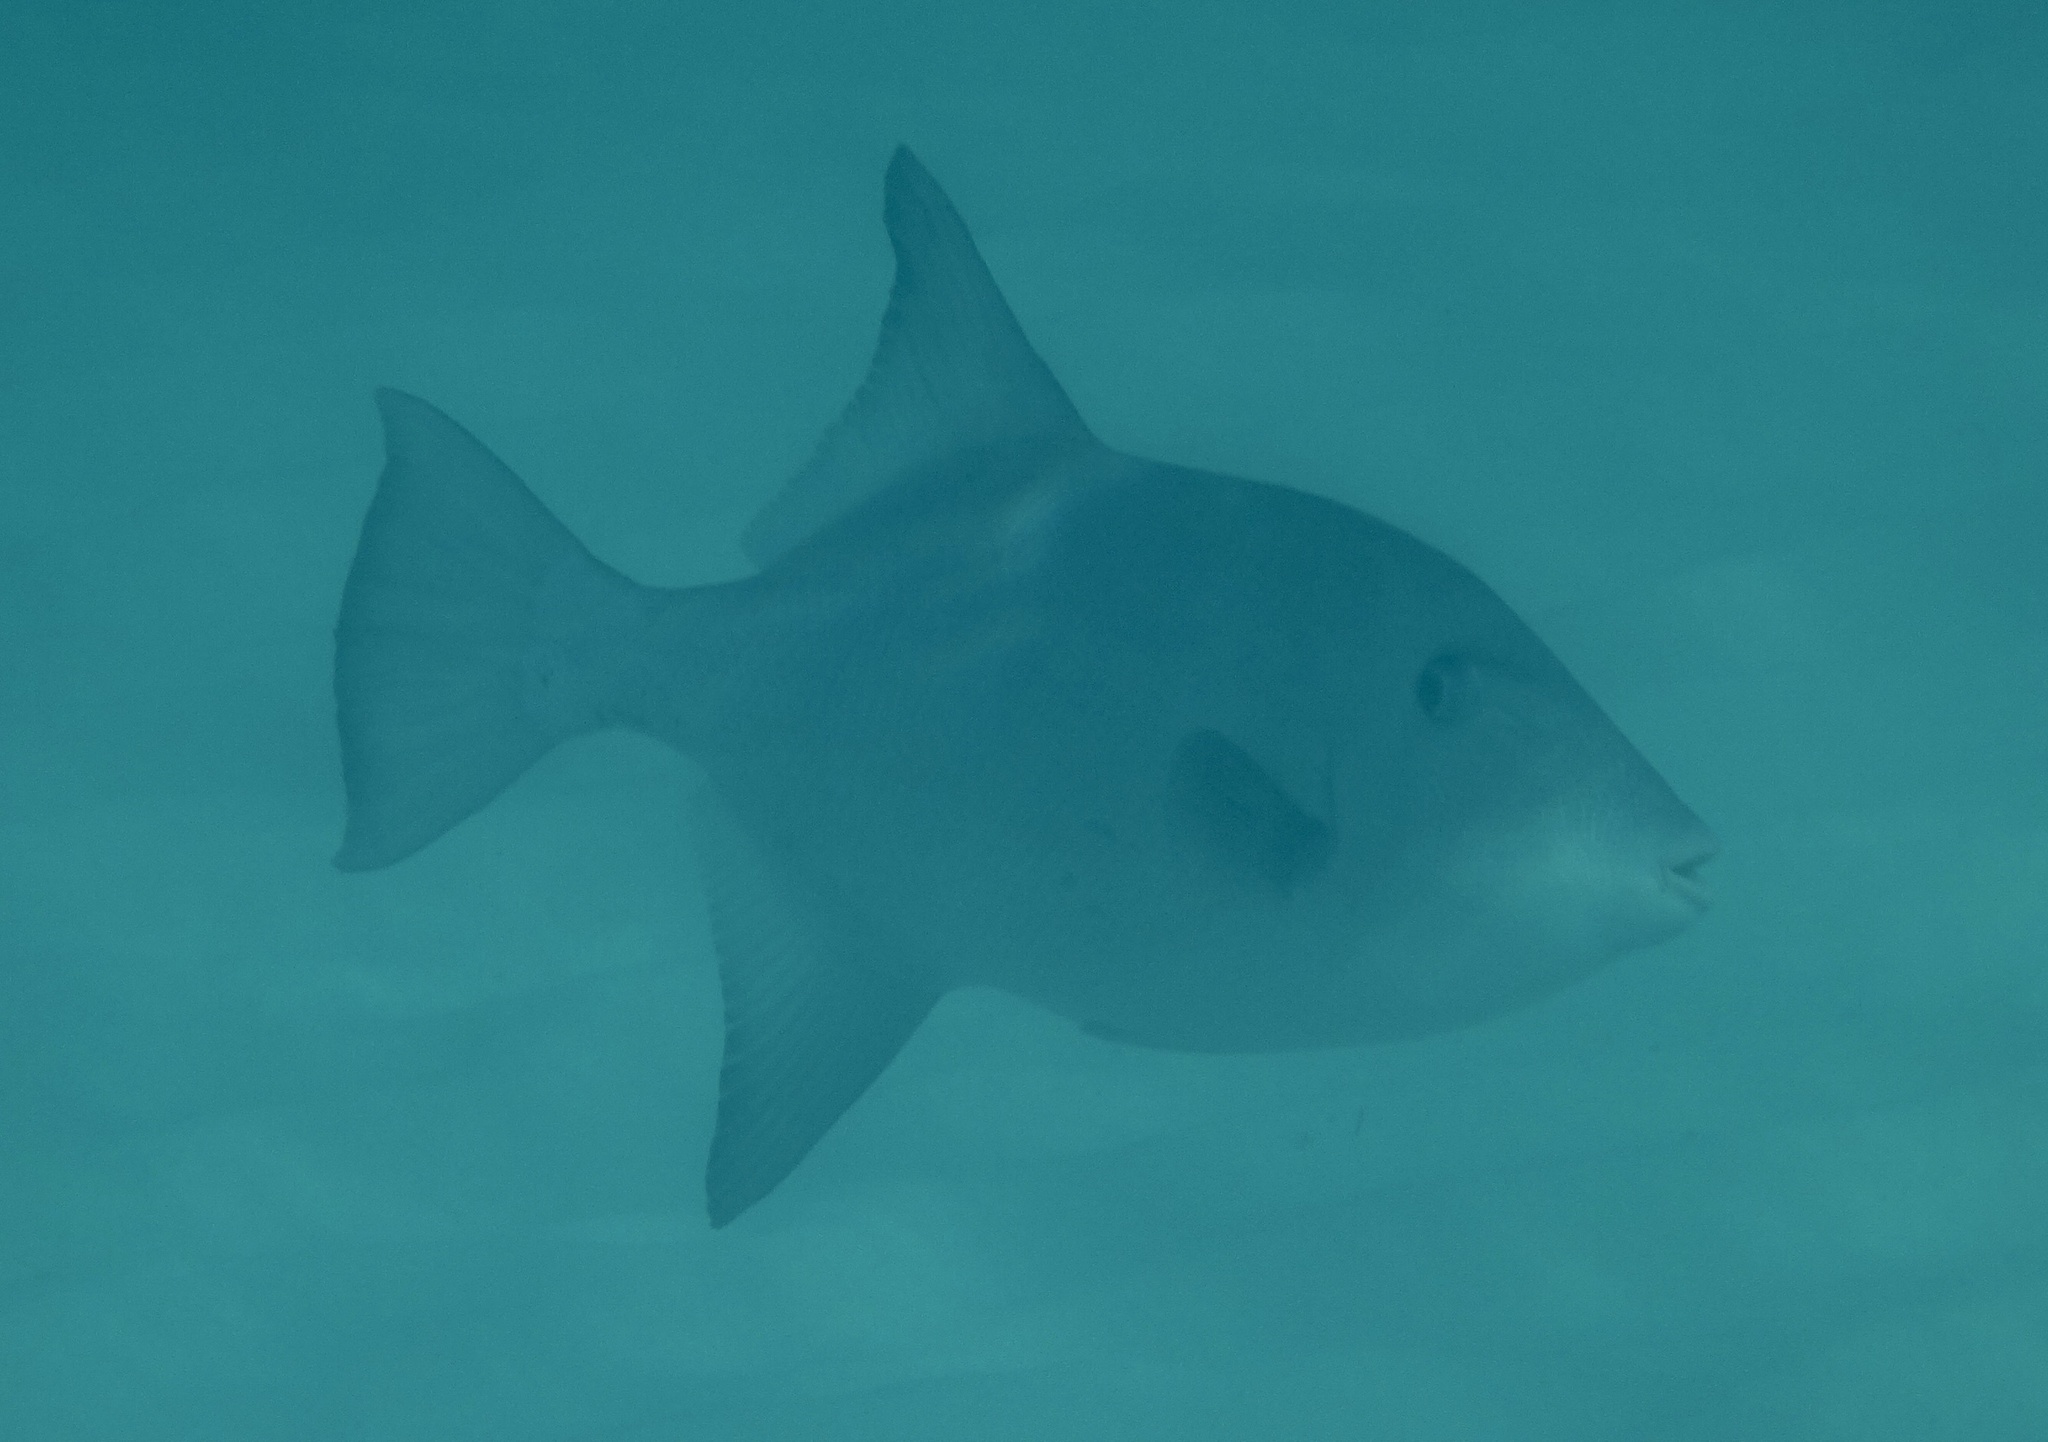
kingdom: Animalia
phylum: Chordata
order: Tetraodontiformes
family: Balistidae
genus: Canthidermis
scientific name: Canthidermis sufflamen
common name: Ocean triggerfish
